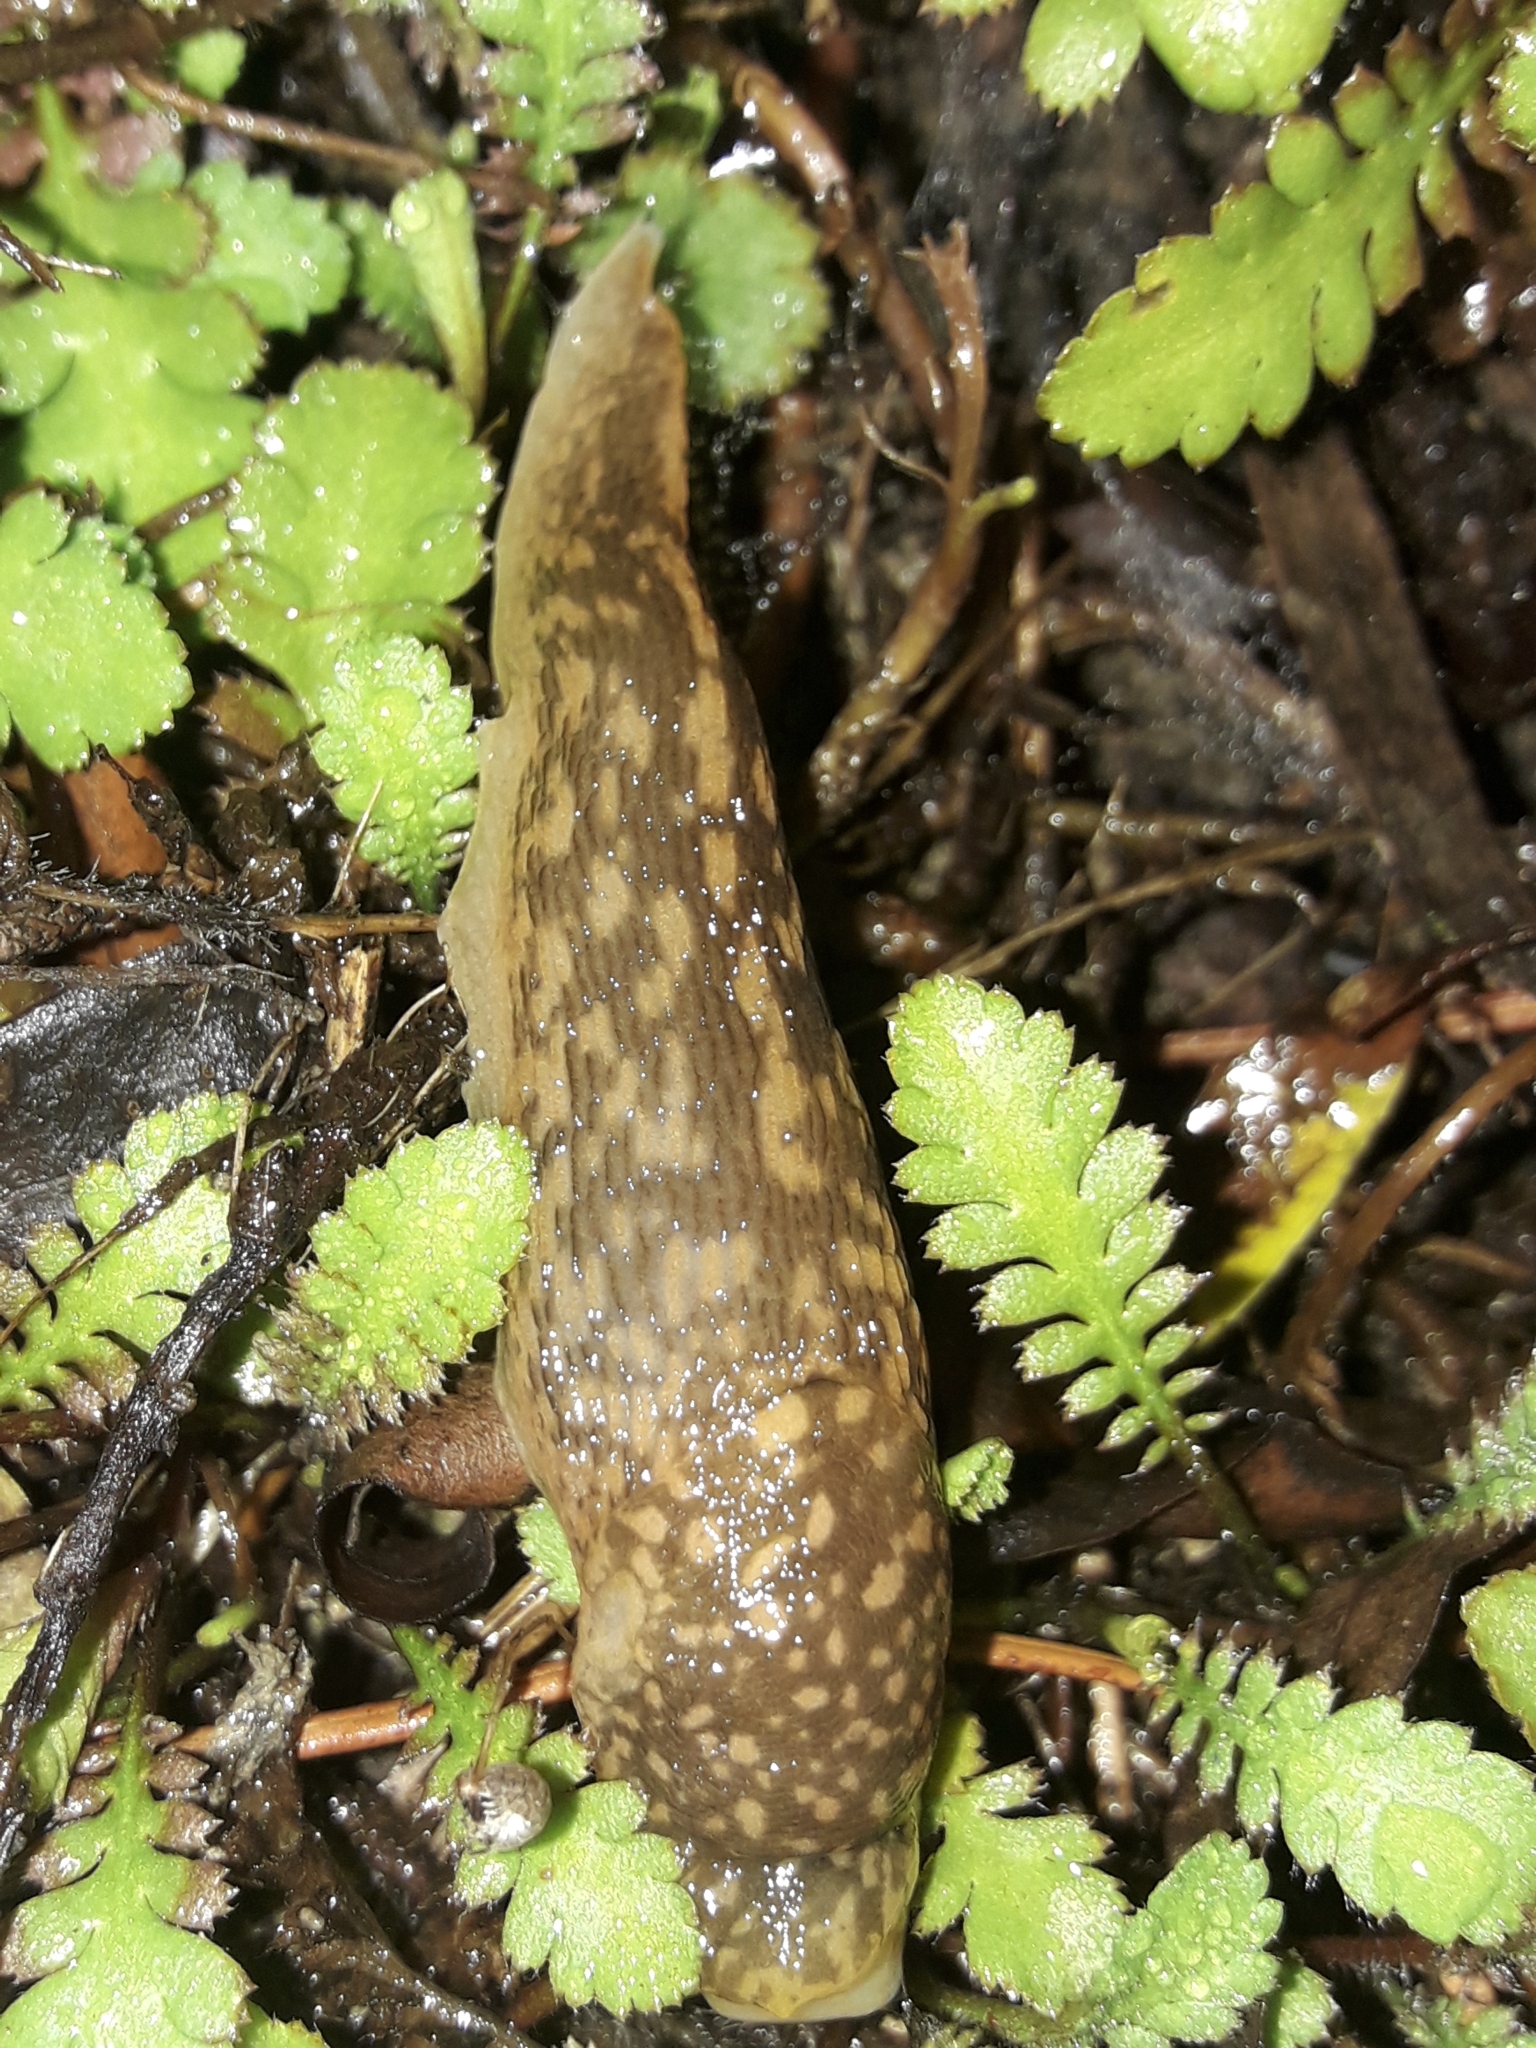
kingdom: Animalia
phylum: Mollusca
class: Gastropoda
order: Stylommatophora
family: Limacidae
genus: Limacus
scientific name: Limacus flavus
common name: Yellow gardenslug
